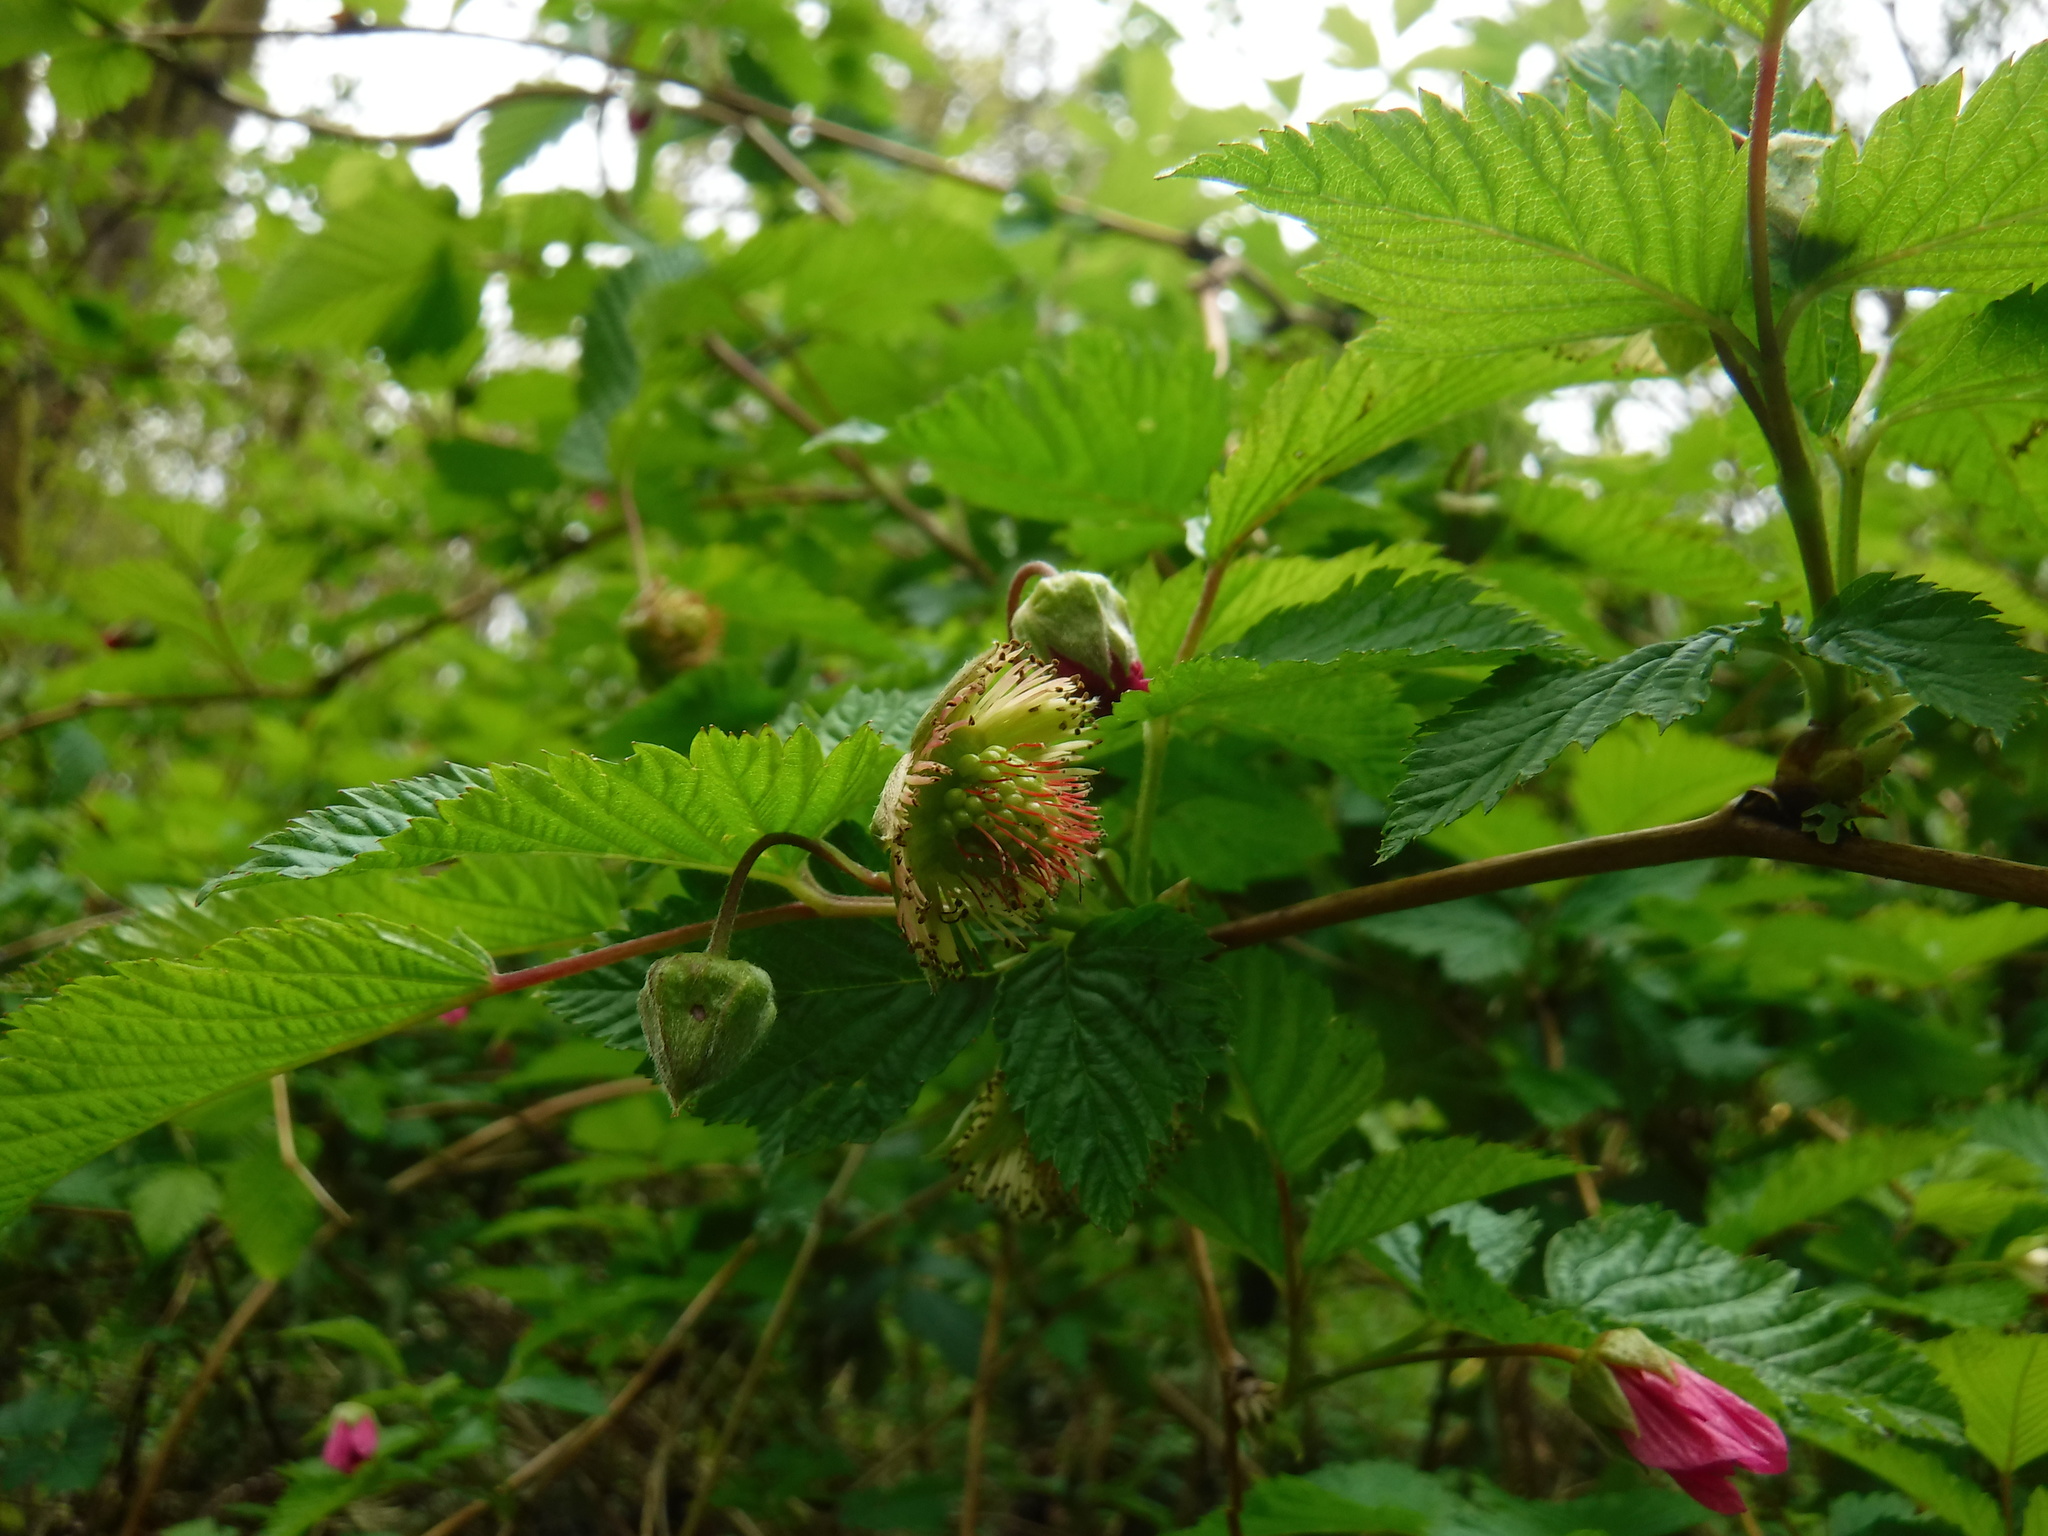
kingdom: Plantae
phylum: Tracheophyta
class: Magnoliopsida
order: Rosales
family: Rosaceae
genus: Rubus
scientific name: Rubus spectabilis
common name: Salmonberry
